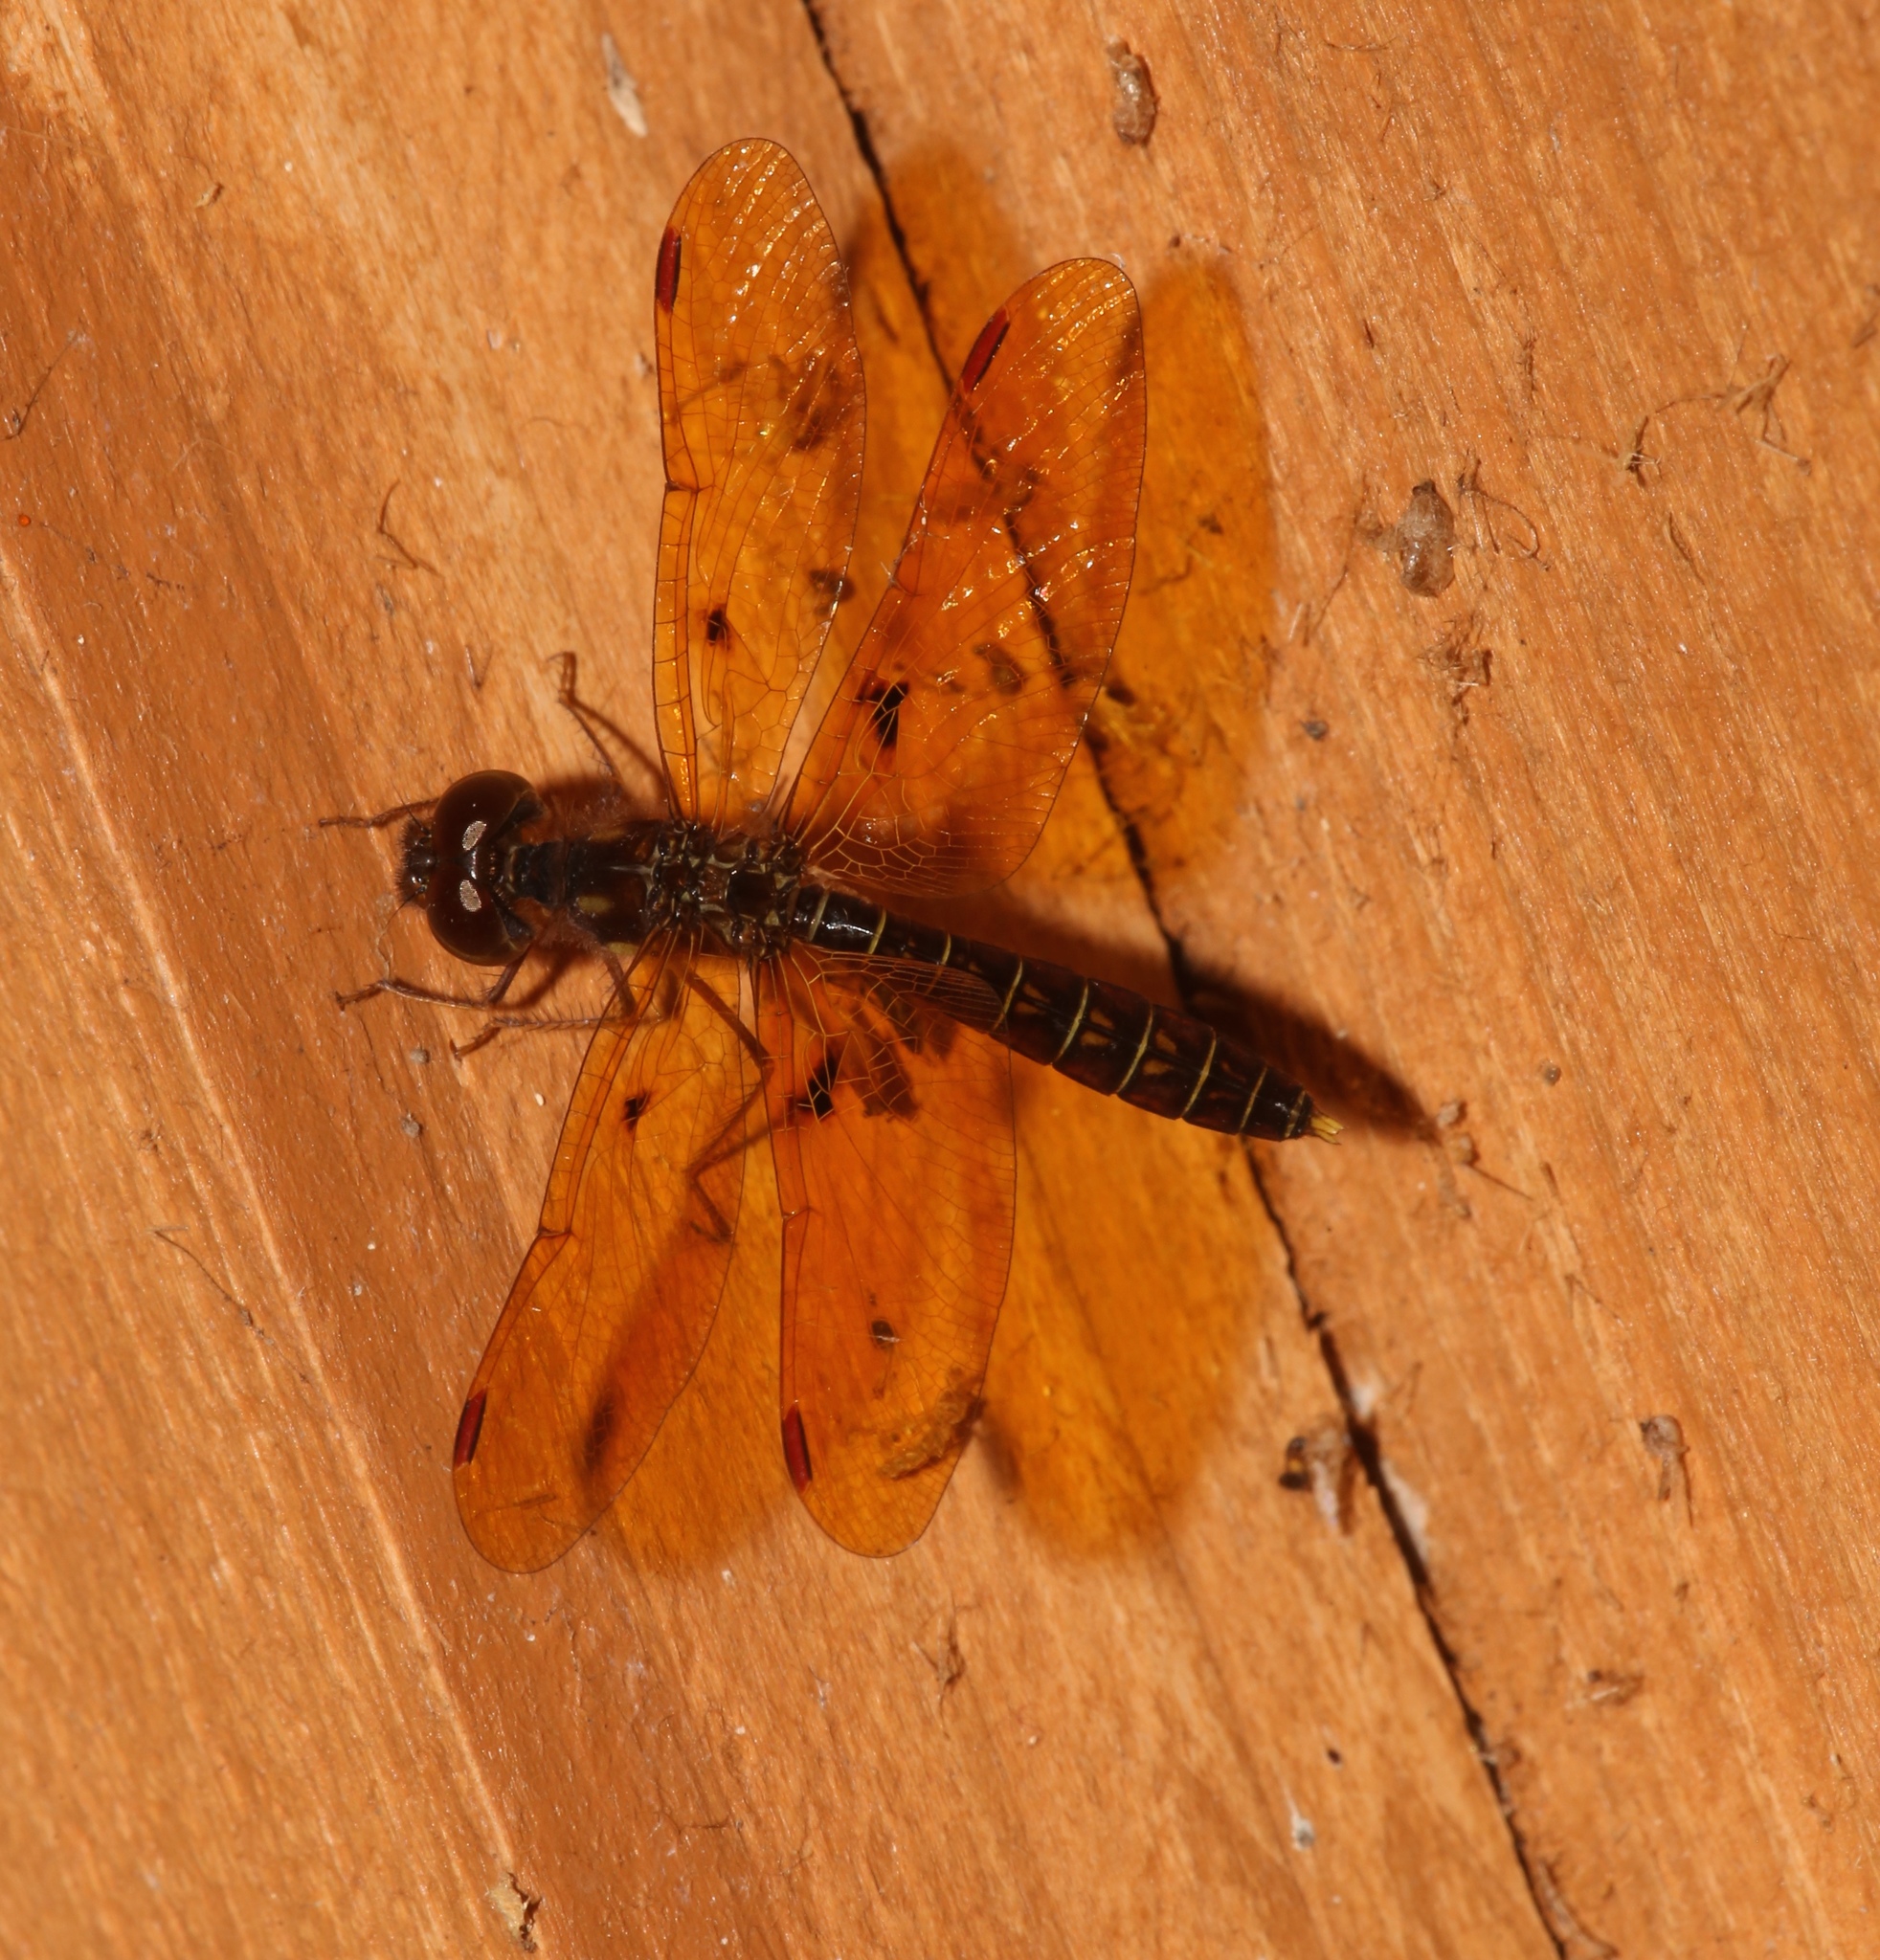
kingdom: Animalia
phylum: Arthropoda
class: Insecta
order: Odonata
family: Libellulidae
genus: Perithemis
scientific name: Perithemis tenera
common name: Eastern amberwing
